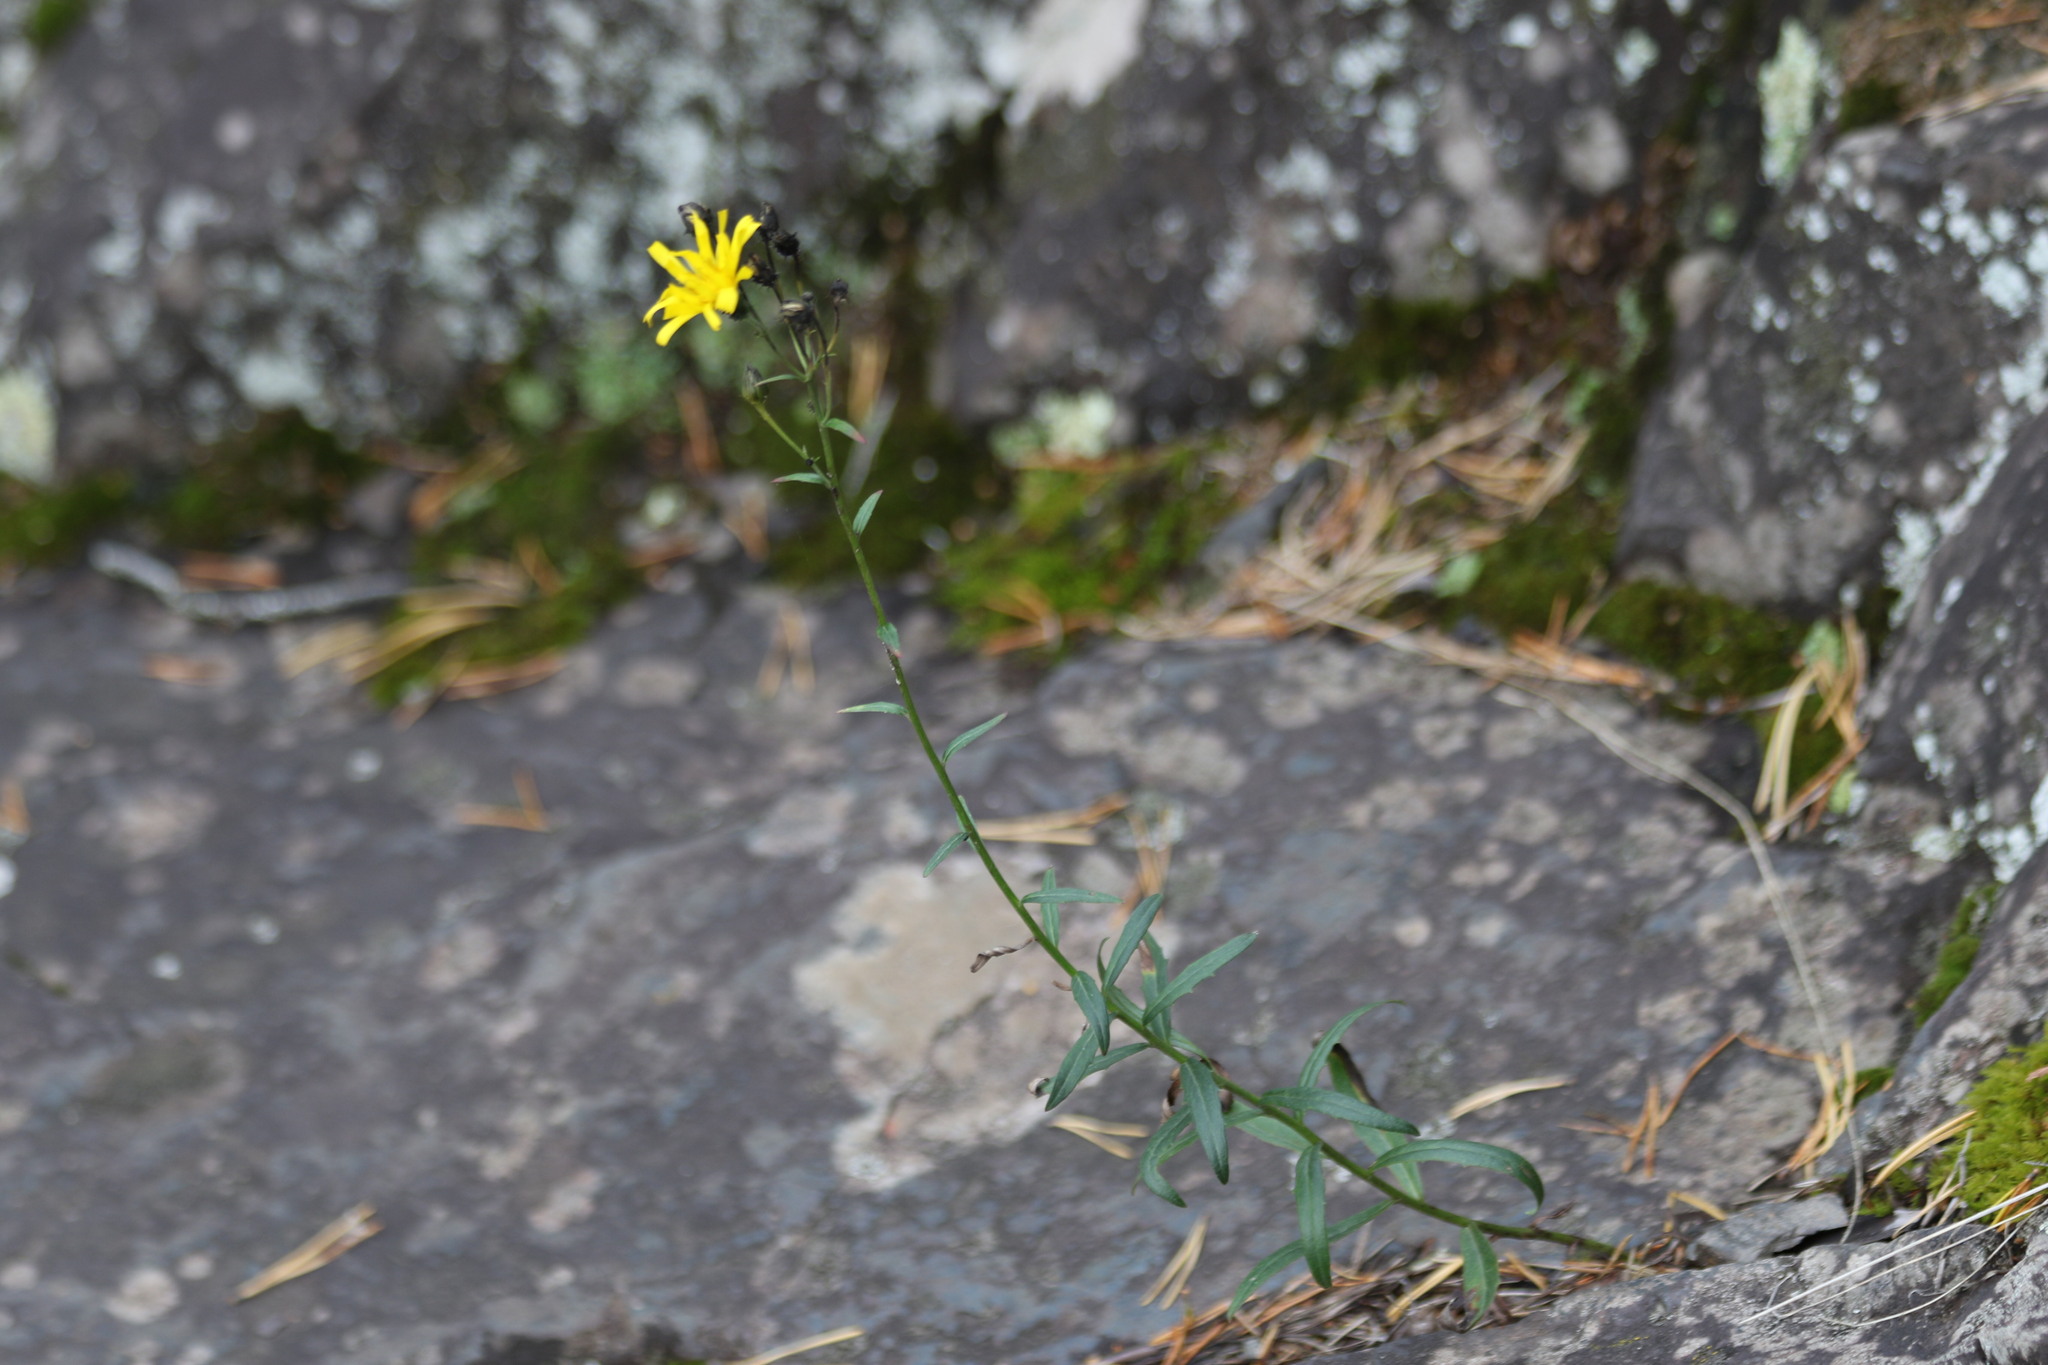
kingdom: Plantae
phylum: Tracheophyta
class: Magnoliopsida
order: Asterales
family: Asteraceae
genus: Hieracium
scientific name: Hieracium umbellatum
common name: Northern hawkweed
